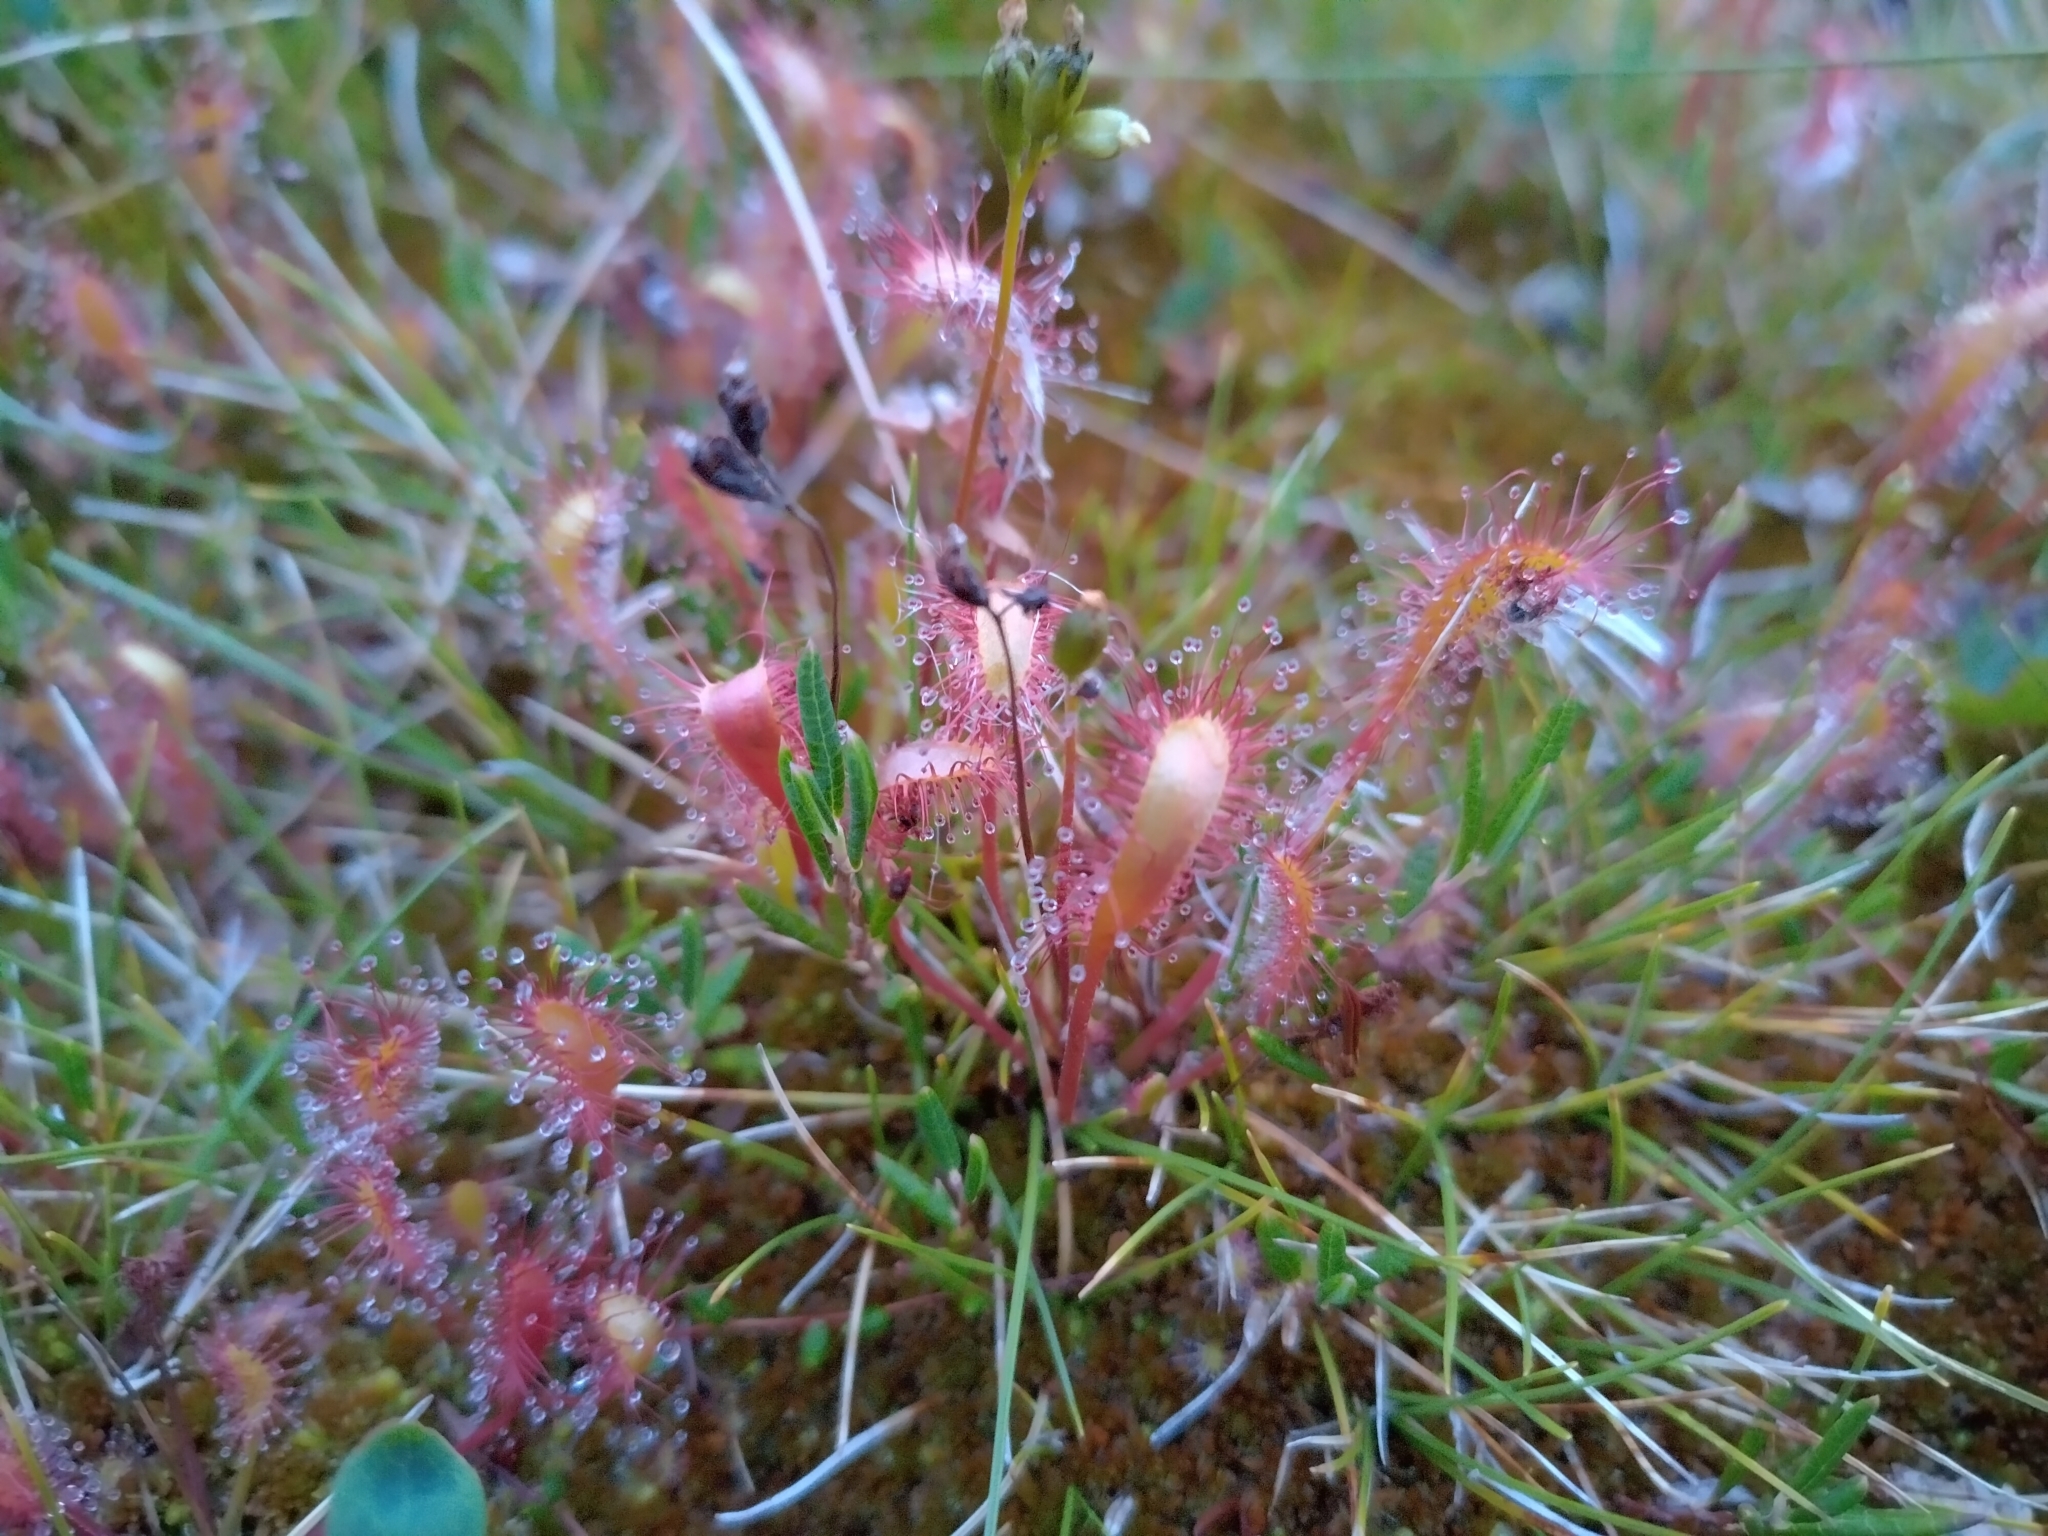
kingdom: Plantae
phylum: Tracheophyta
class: Magnoliopsida
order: Caryophyllales
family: Droseraceae
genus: Drosera
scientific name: Drosera anglica
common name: Great sundew
